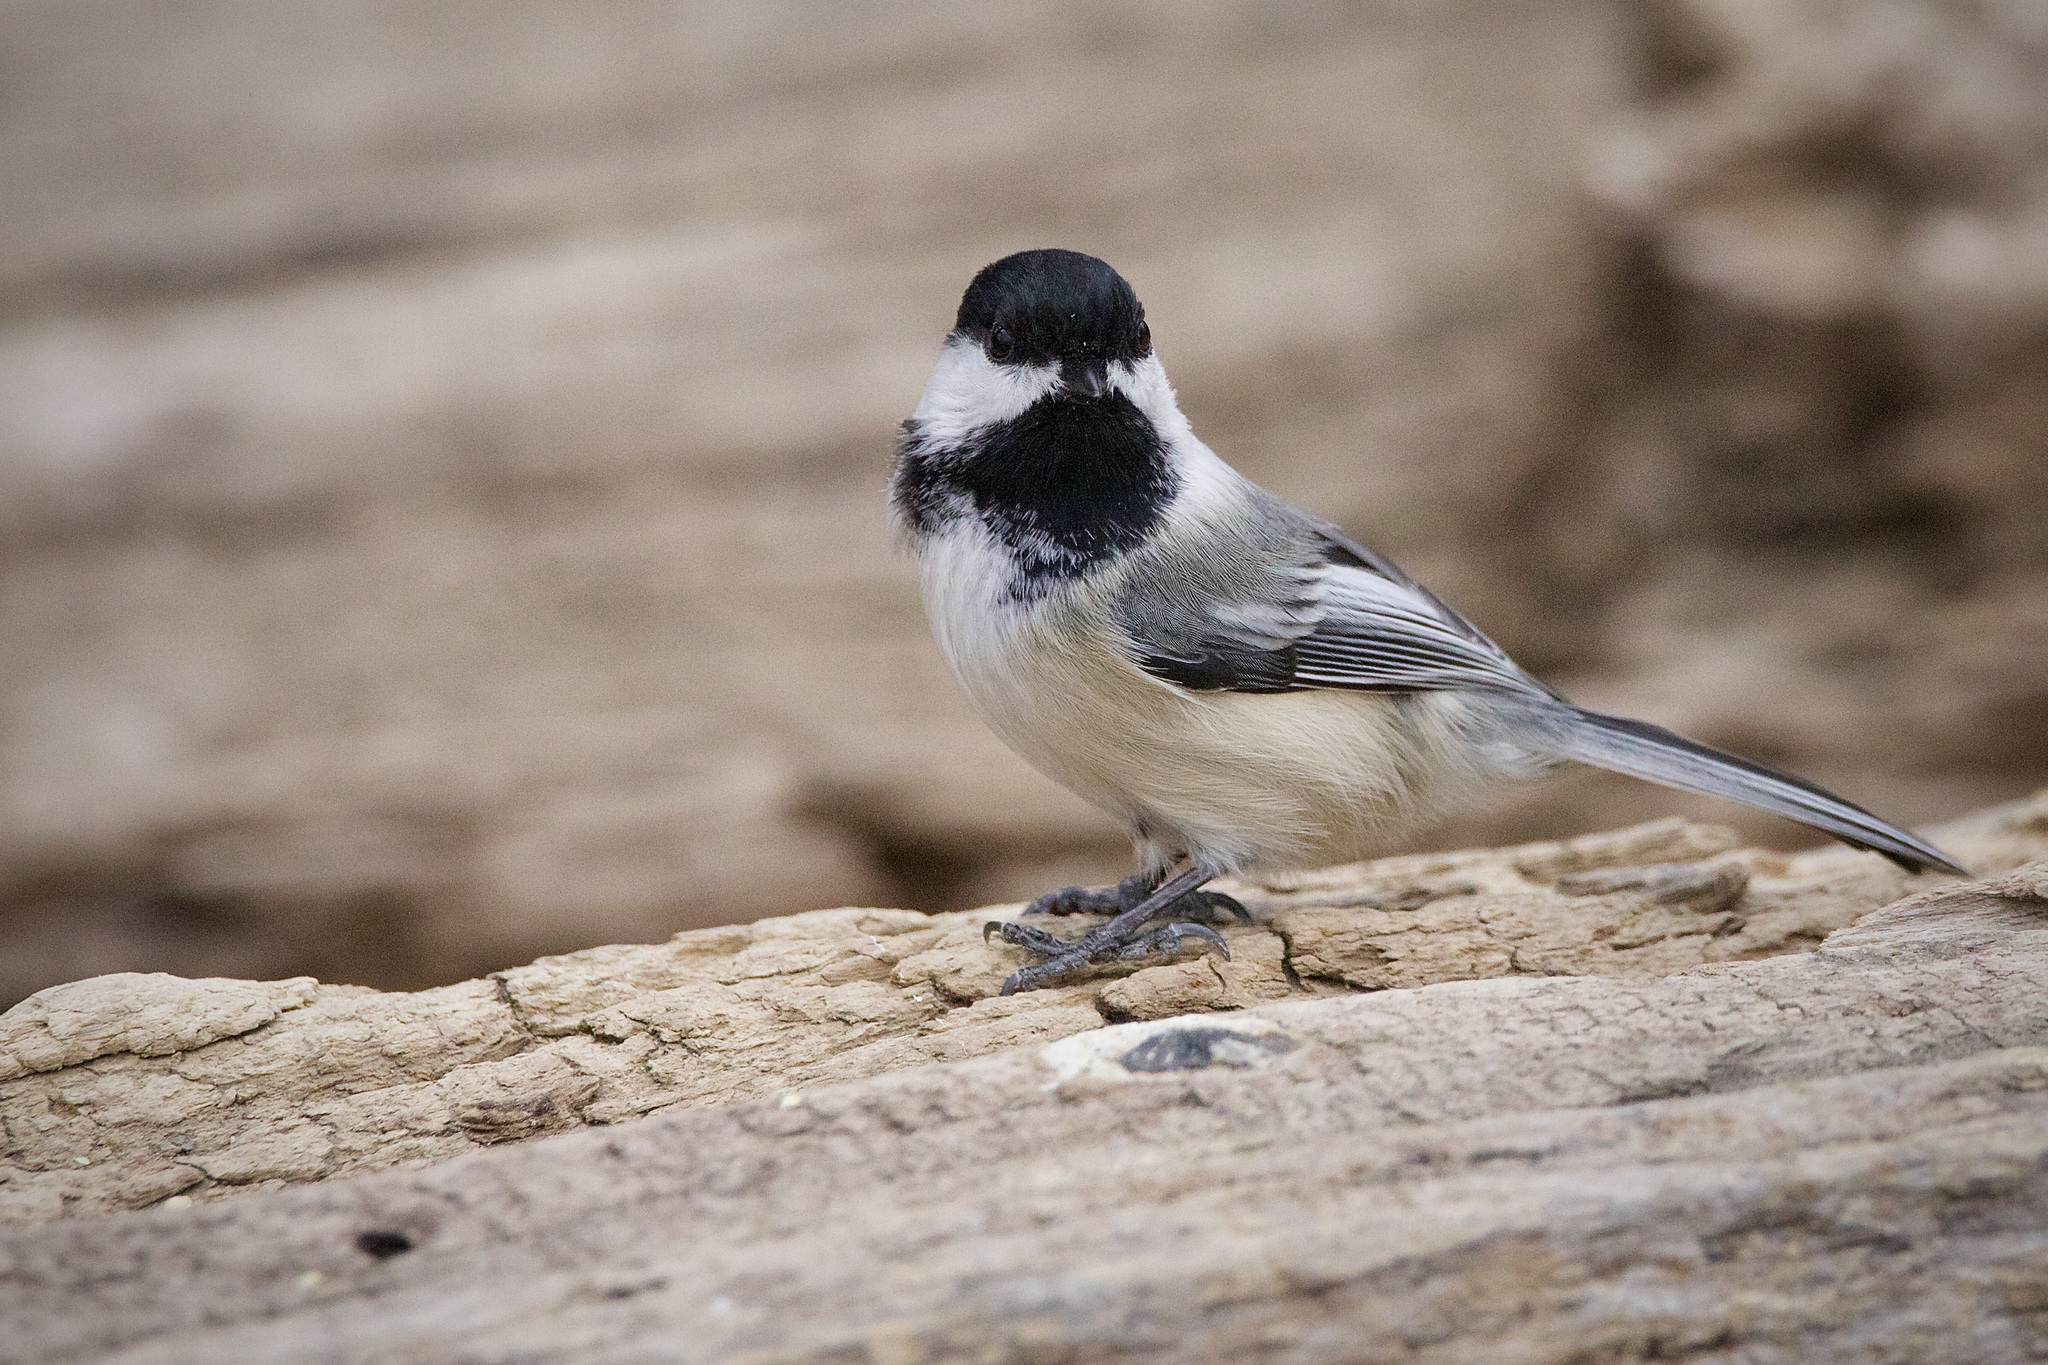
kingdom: Animalia
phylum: Chordata
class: Aves
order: Passeriformes
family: Paridae
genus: Poecile
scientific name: Poecile atricapillus
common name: Black-capped chickadee
